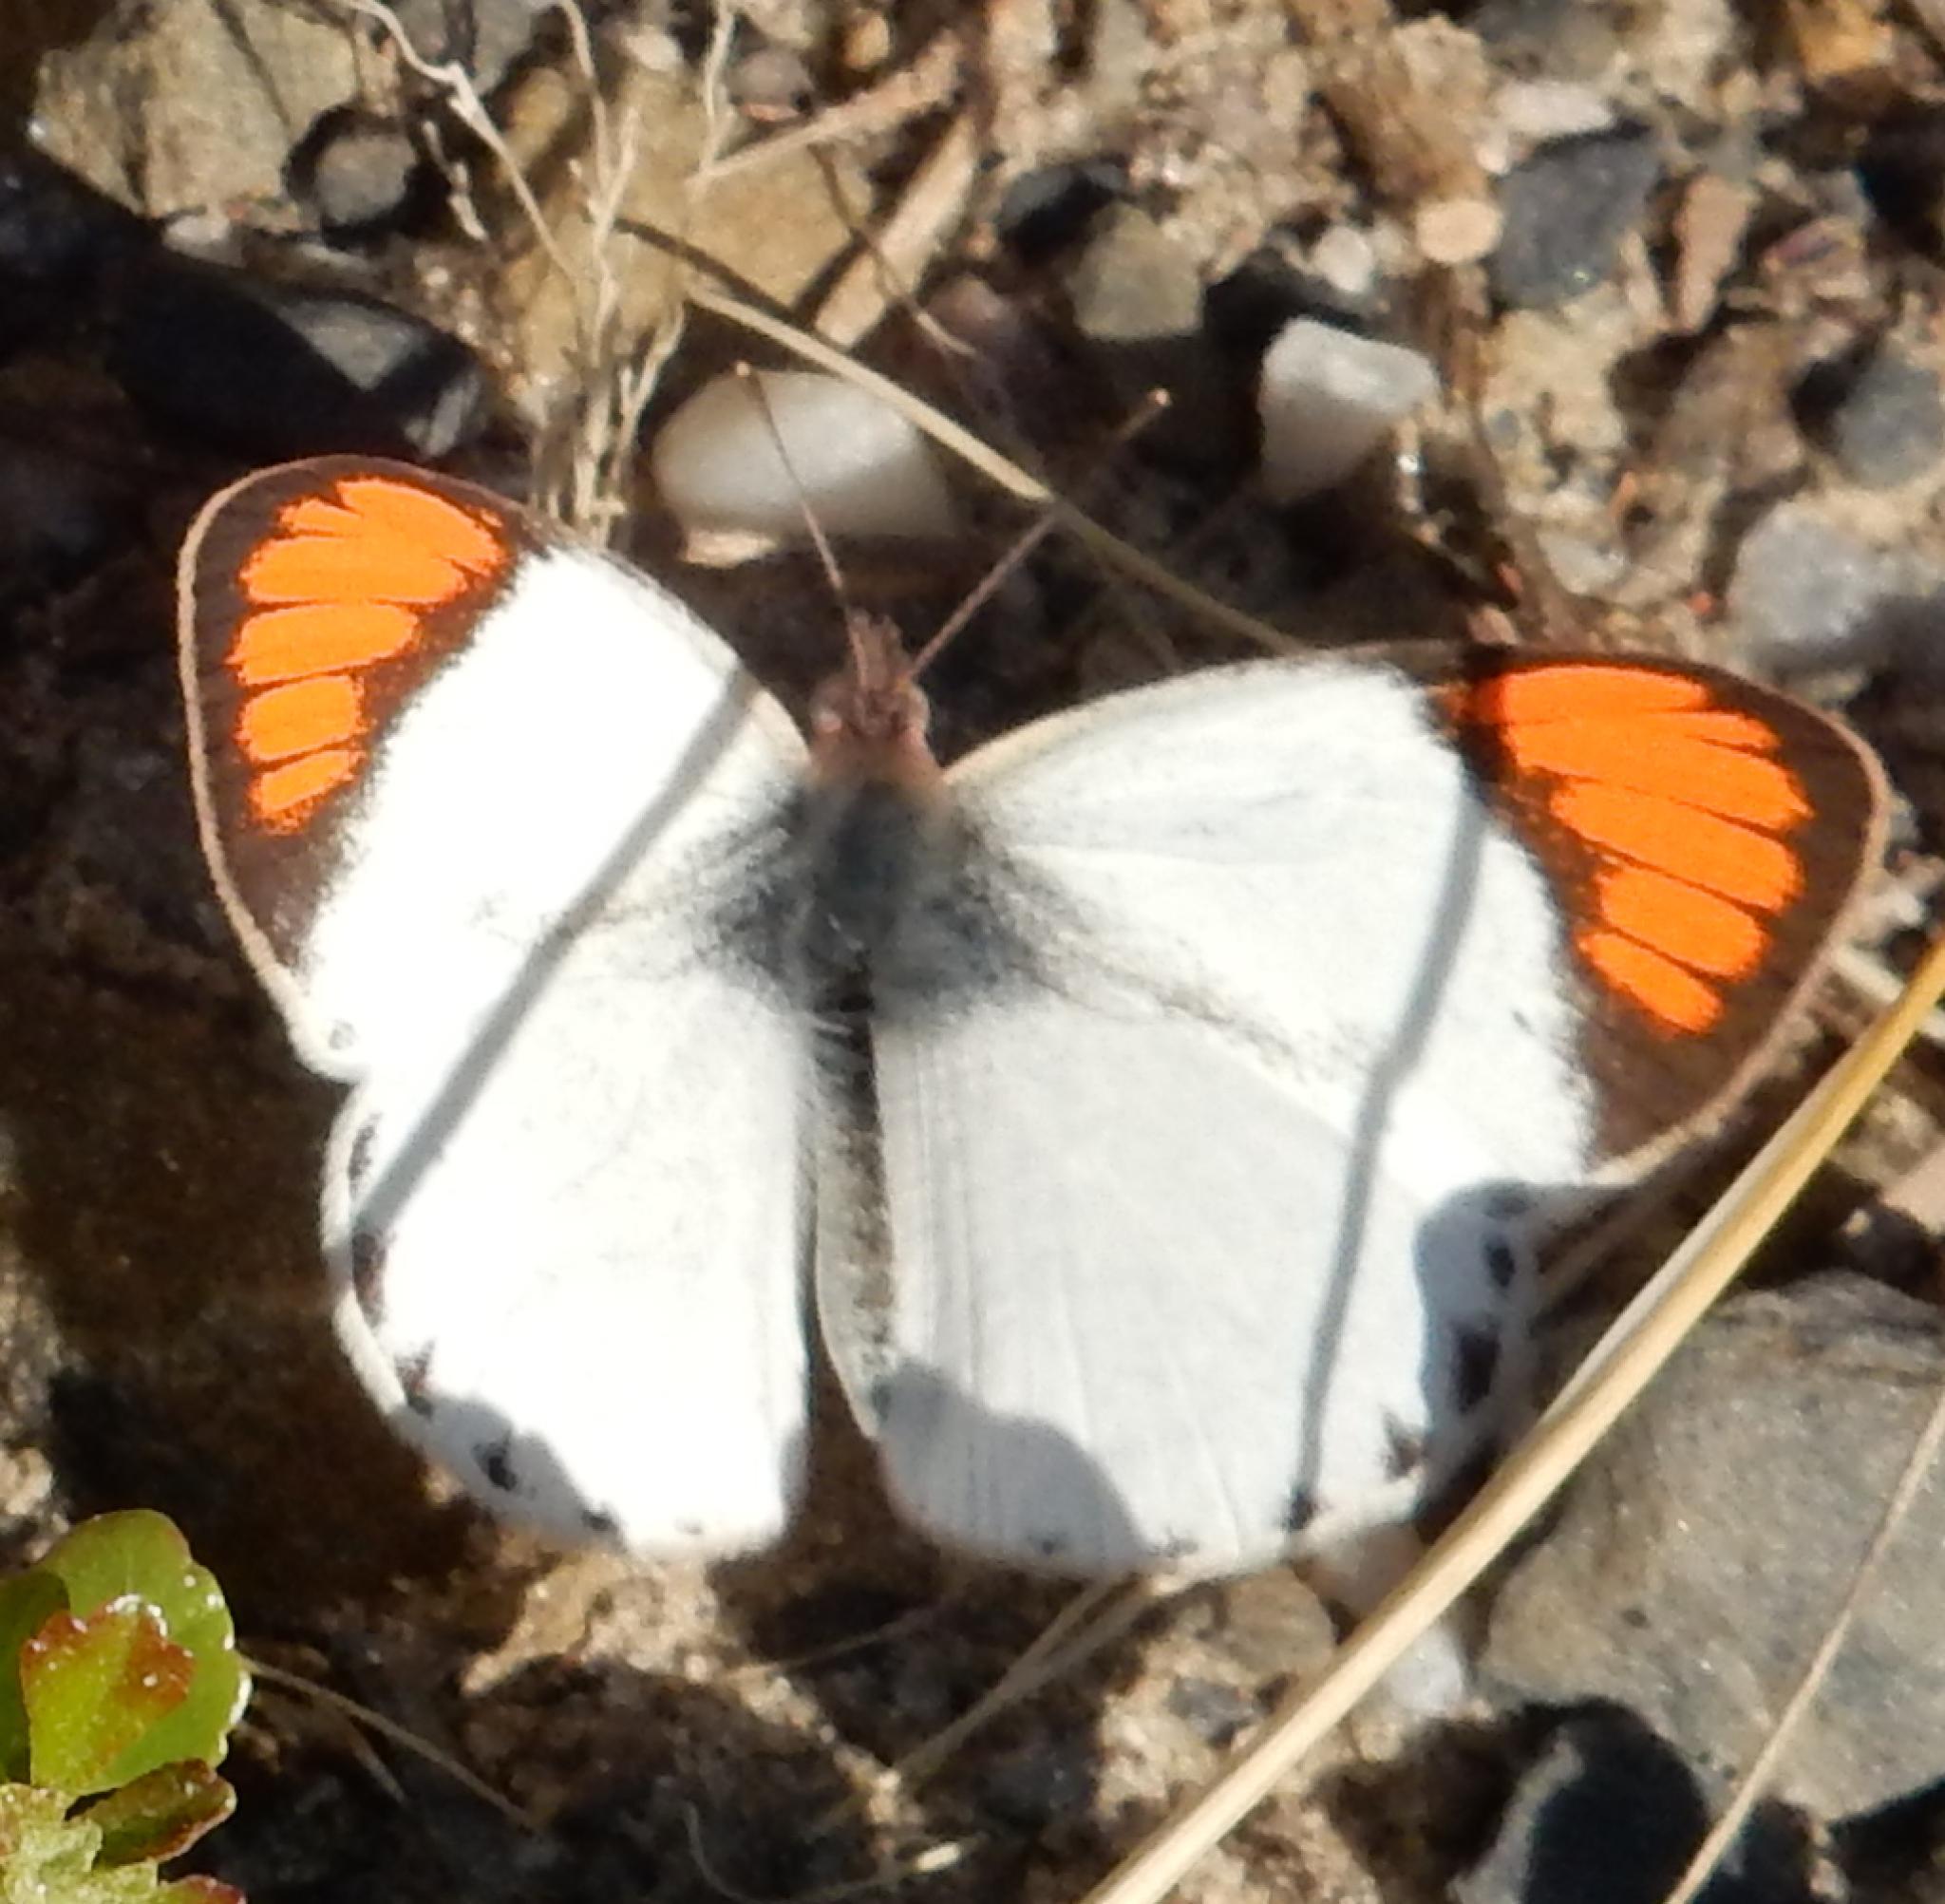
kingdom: Animalia
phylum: Arthropoda
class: Insecta
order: Lepidoptera
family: Pieridae
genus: Colotis
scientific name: Colotis euippe
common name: Round-winged orange tip
